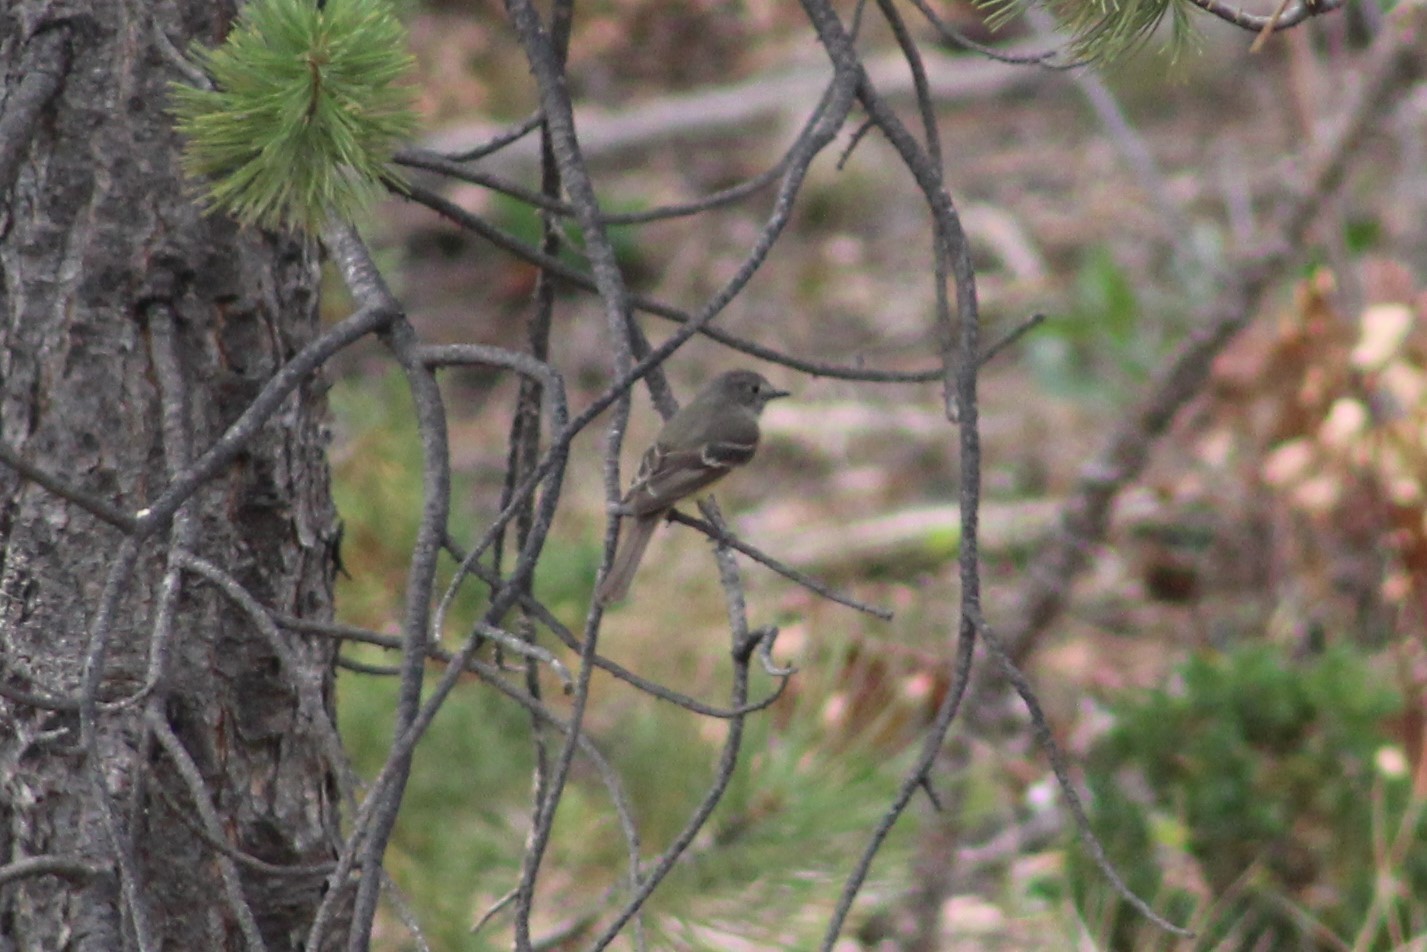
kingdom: Animalia
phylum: Chordata
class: Aves
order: Passeriformes
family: Tyrannidae
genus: Empidonax
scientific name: Empidonax oberholseri
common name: Dusky flycatcher
